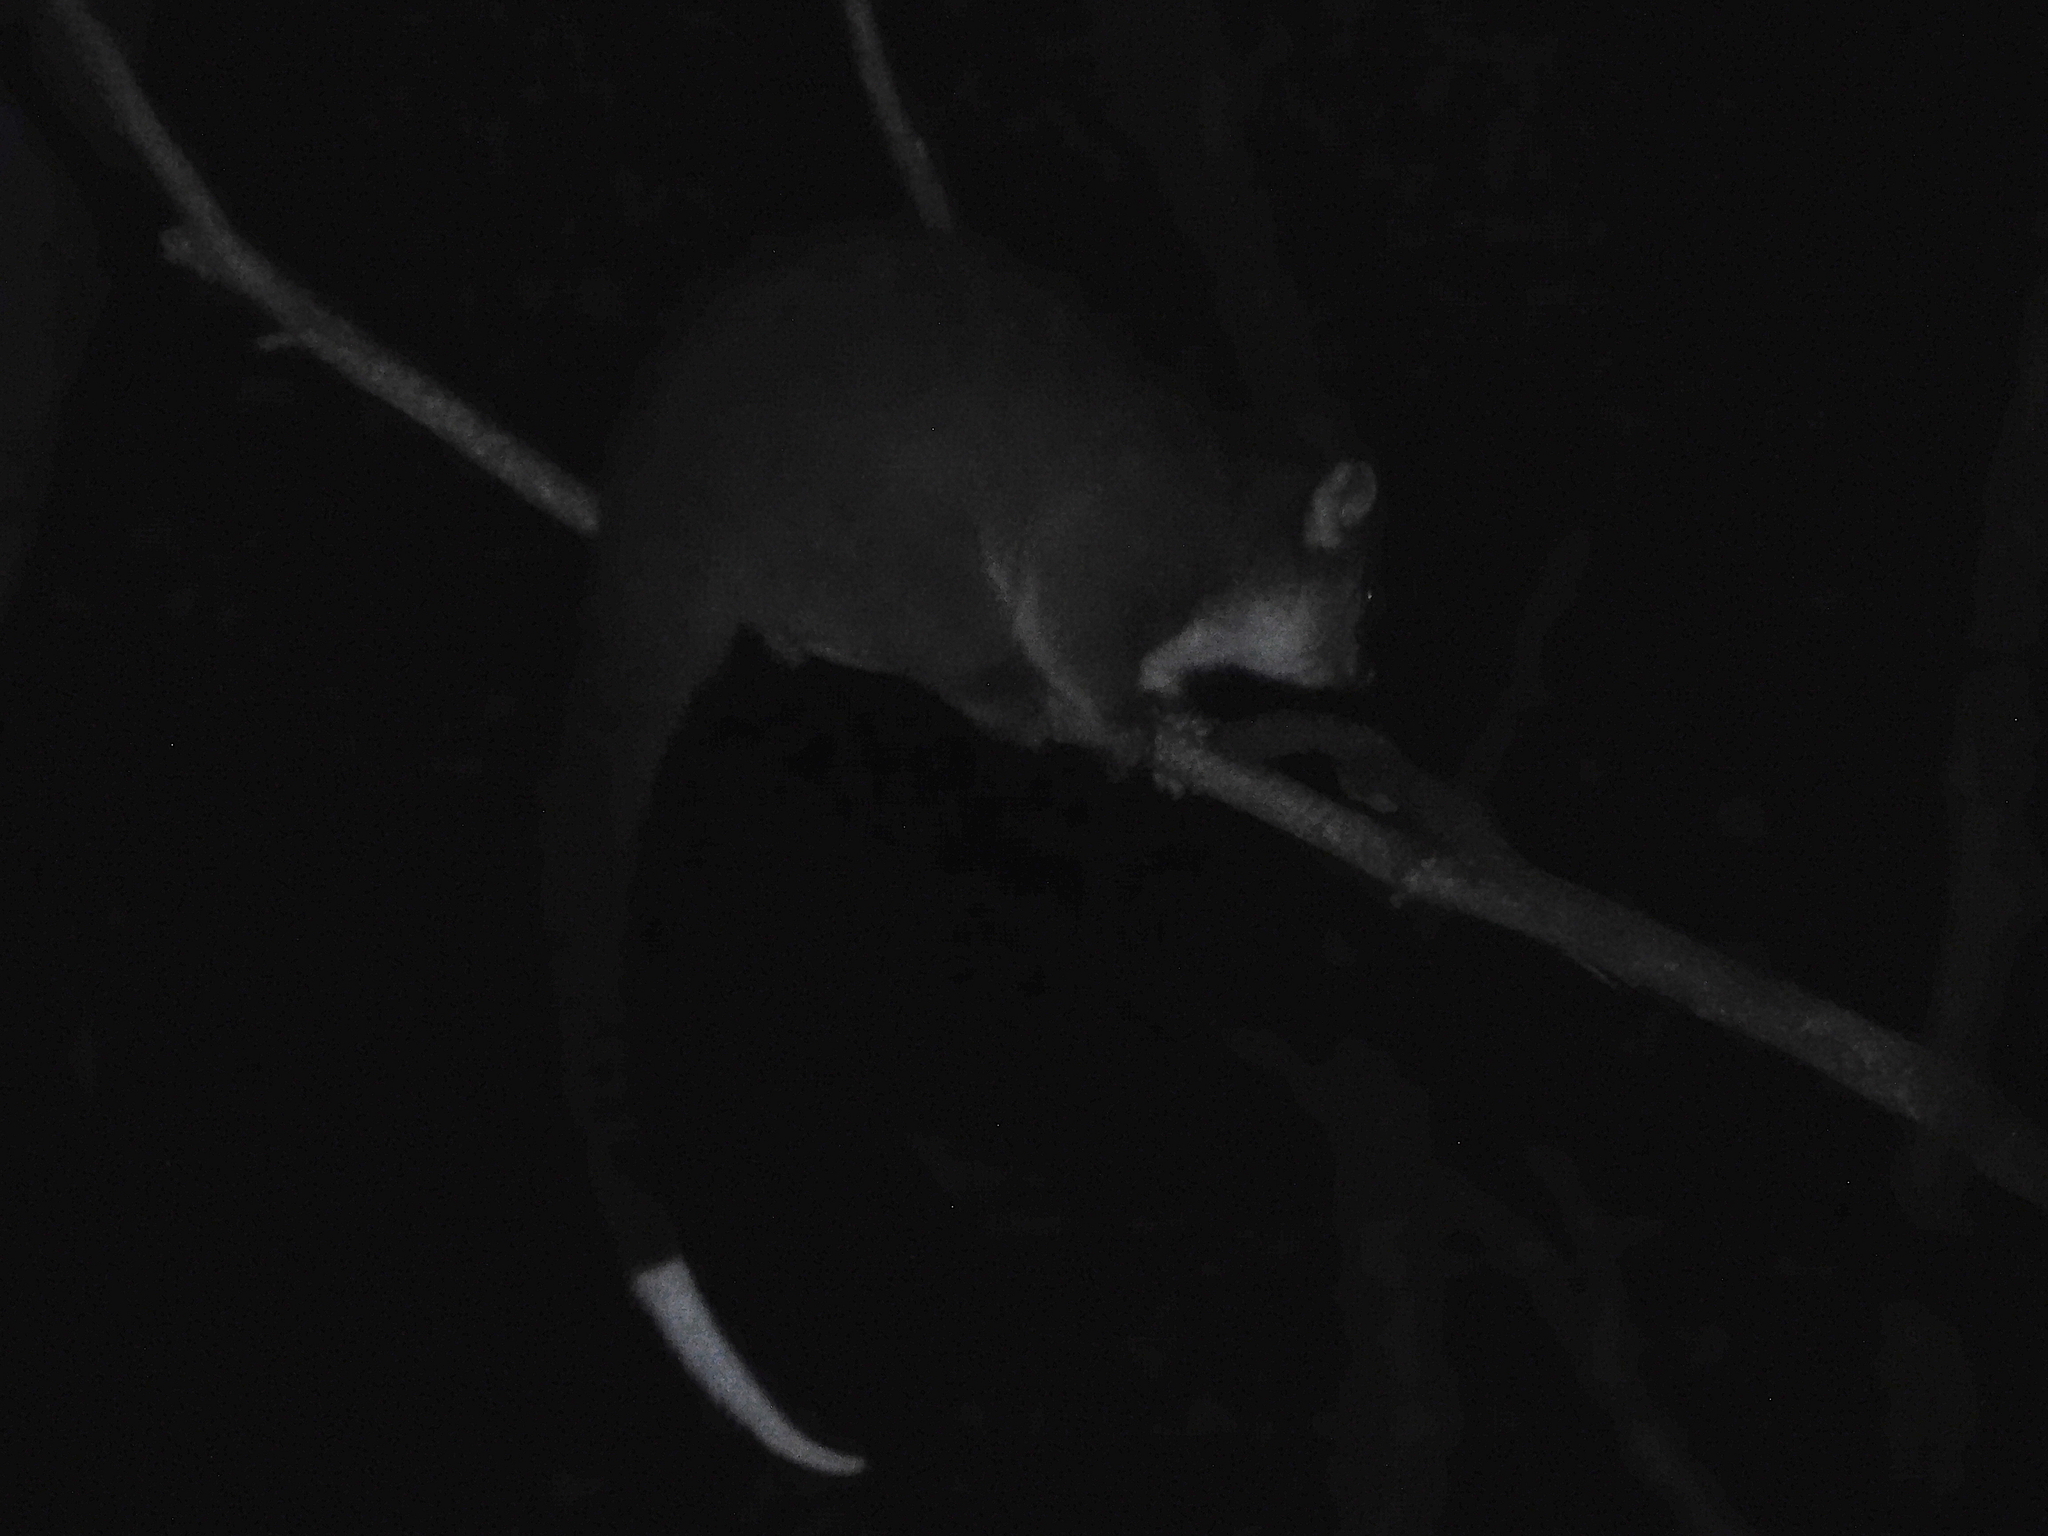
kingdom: Animalia
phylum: Chordata
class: Mammalia
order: Diprotodontia
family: Pseudocheiridae
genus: Pseudocheirus
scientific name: Pseudocheirus peregrinus
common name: Common ringtail possum
